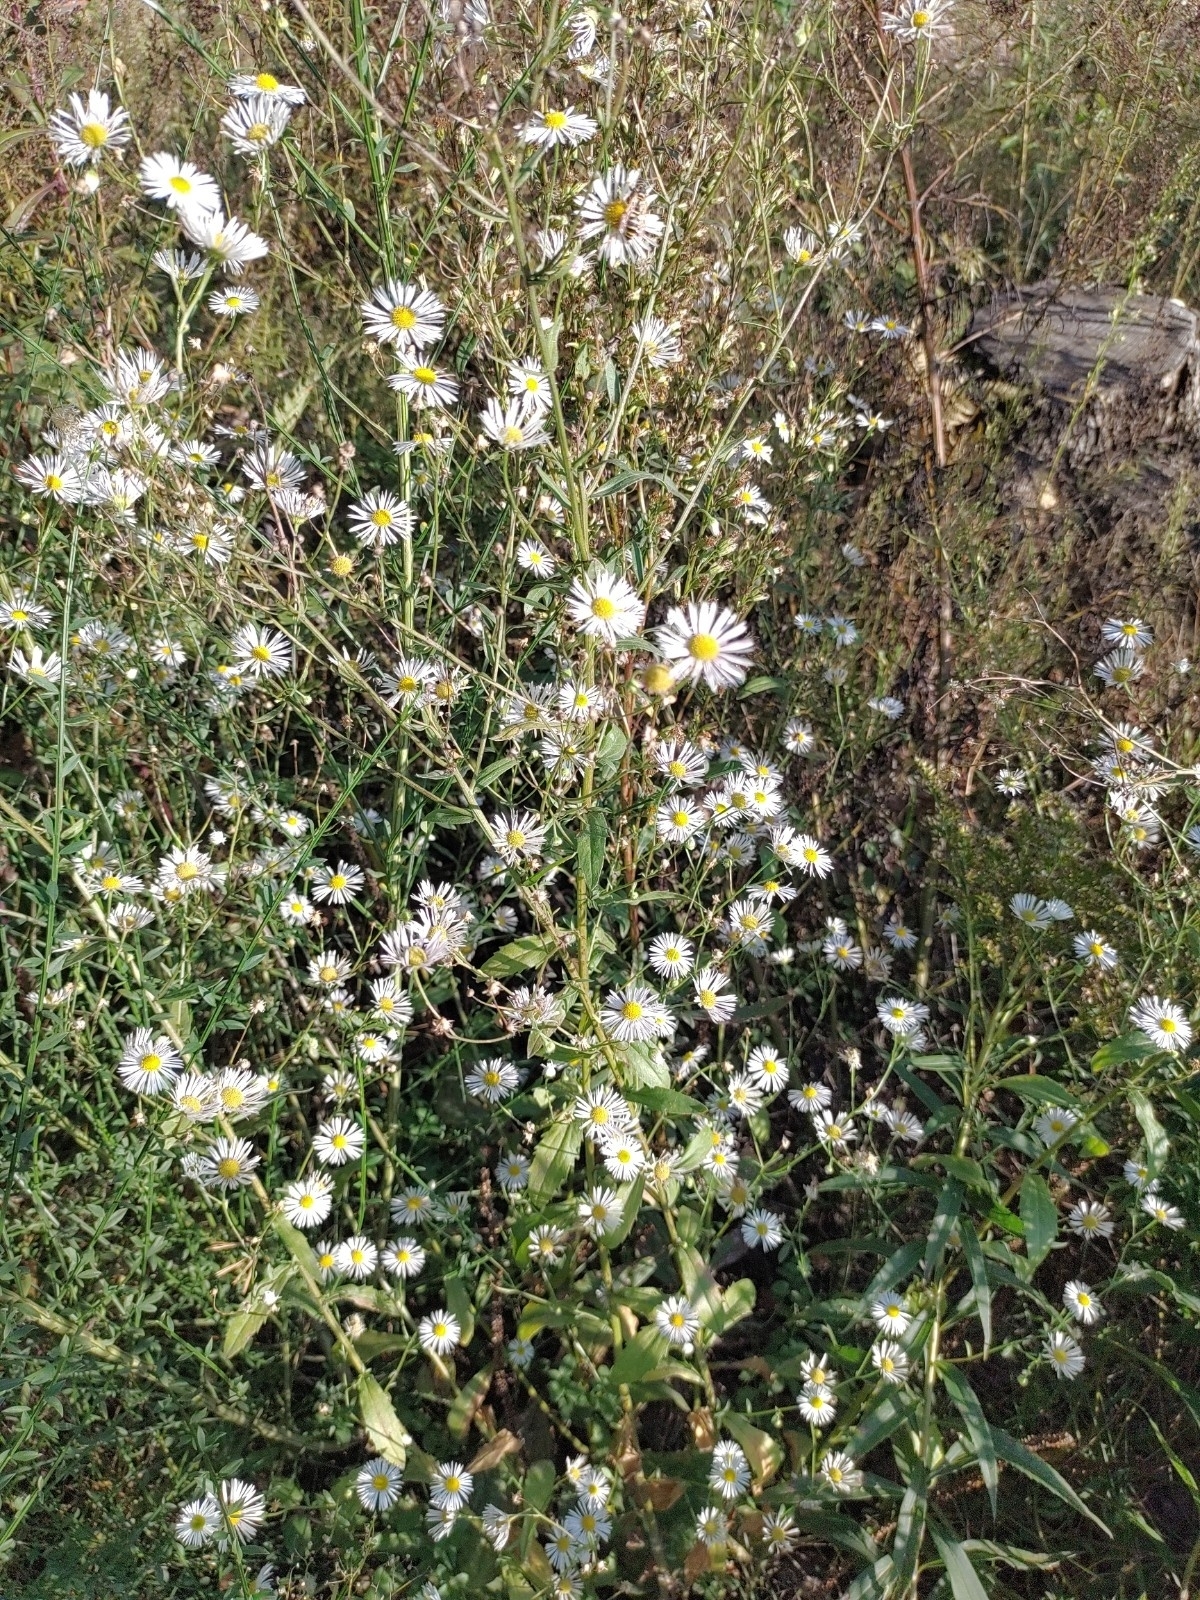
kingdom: Plantae
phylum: Tracheophyta
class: Magnoliopsida
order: Asterales
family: Asteraceae
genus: Erigeron
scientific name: Erigeron annuus
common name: Tall fleabane
